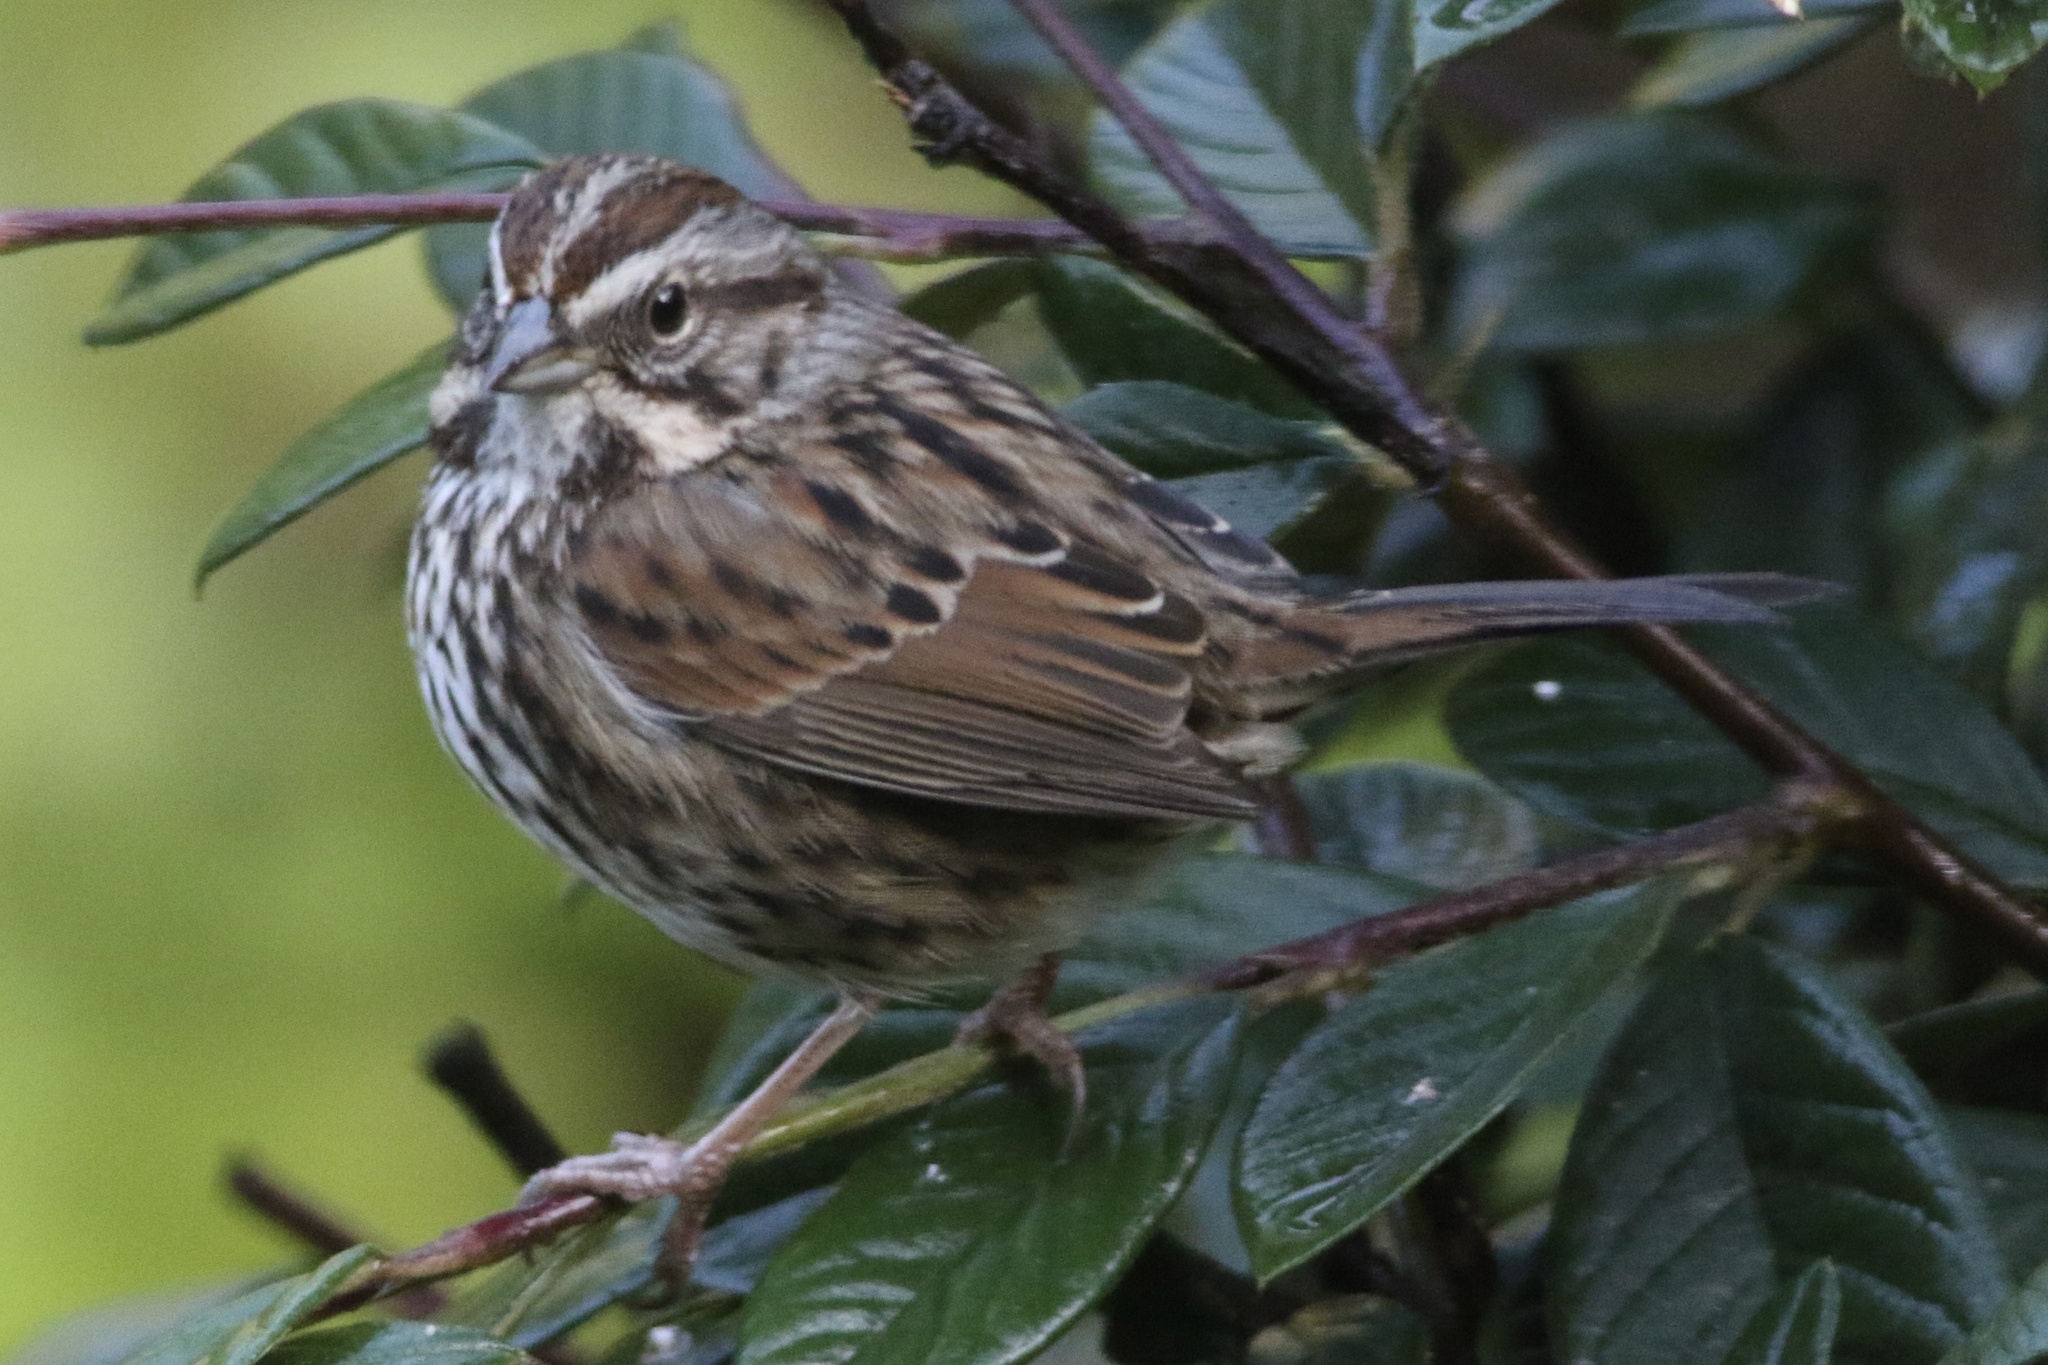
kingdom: Animalia
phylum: Chordata
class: Aves
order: Passeriformes
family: Passerellidae
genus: Melospiza
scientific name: Melospiza melodia
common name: Song sparrow
